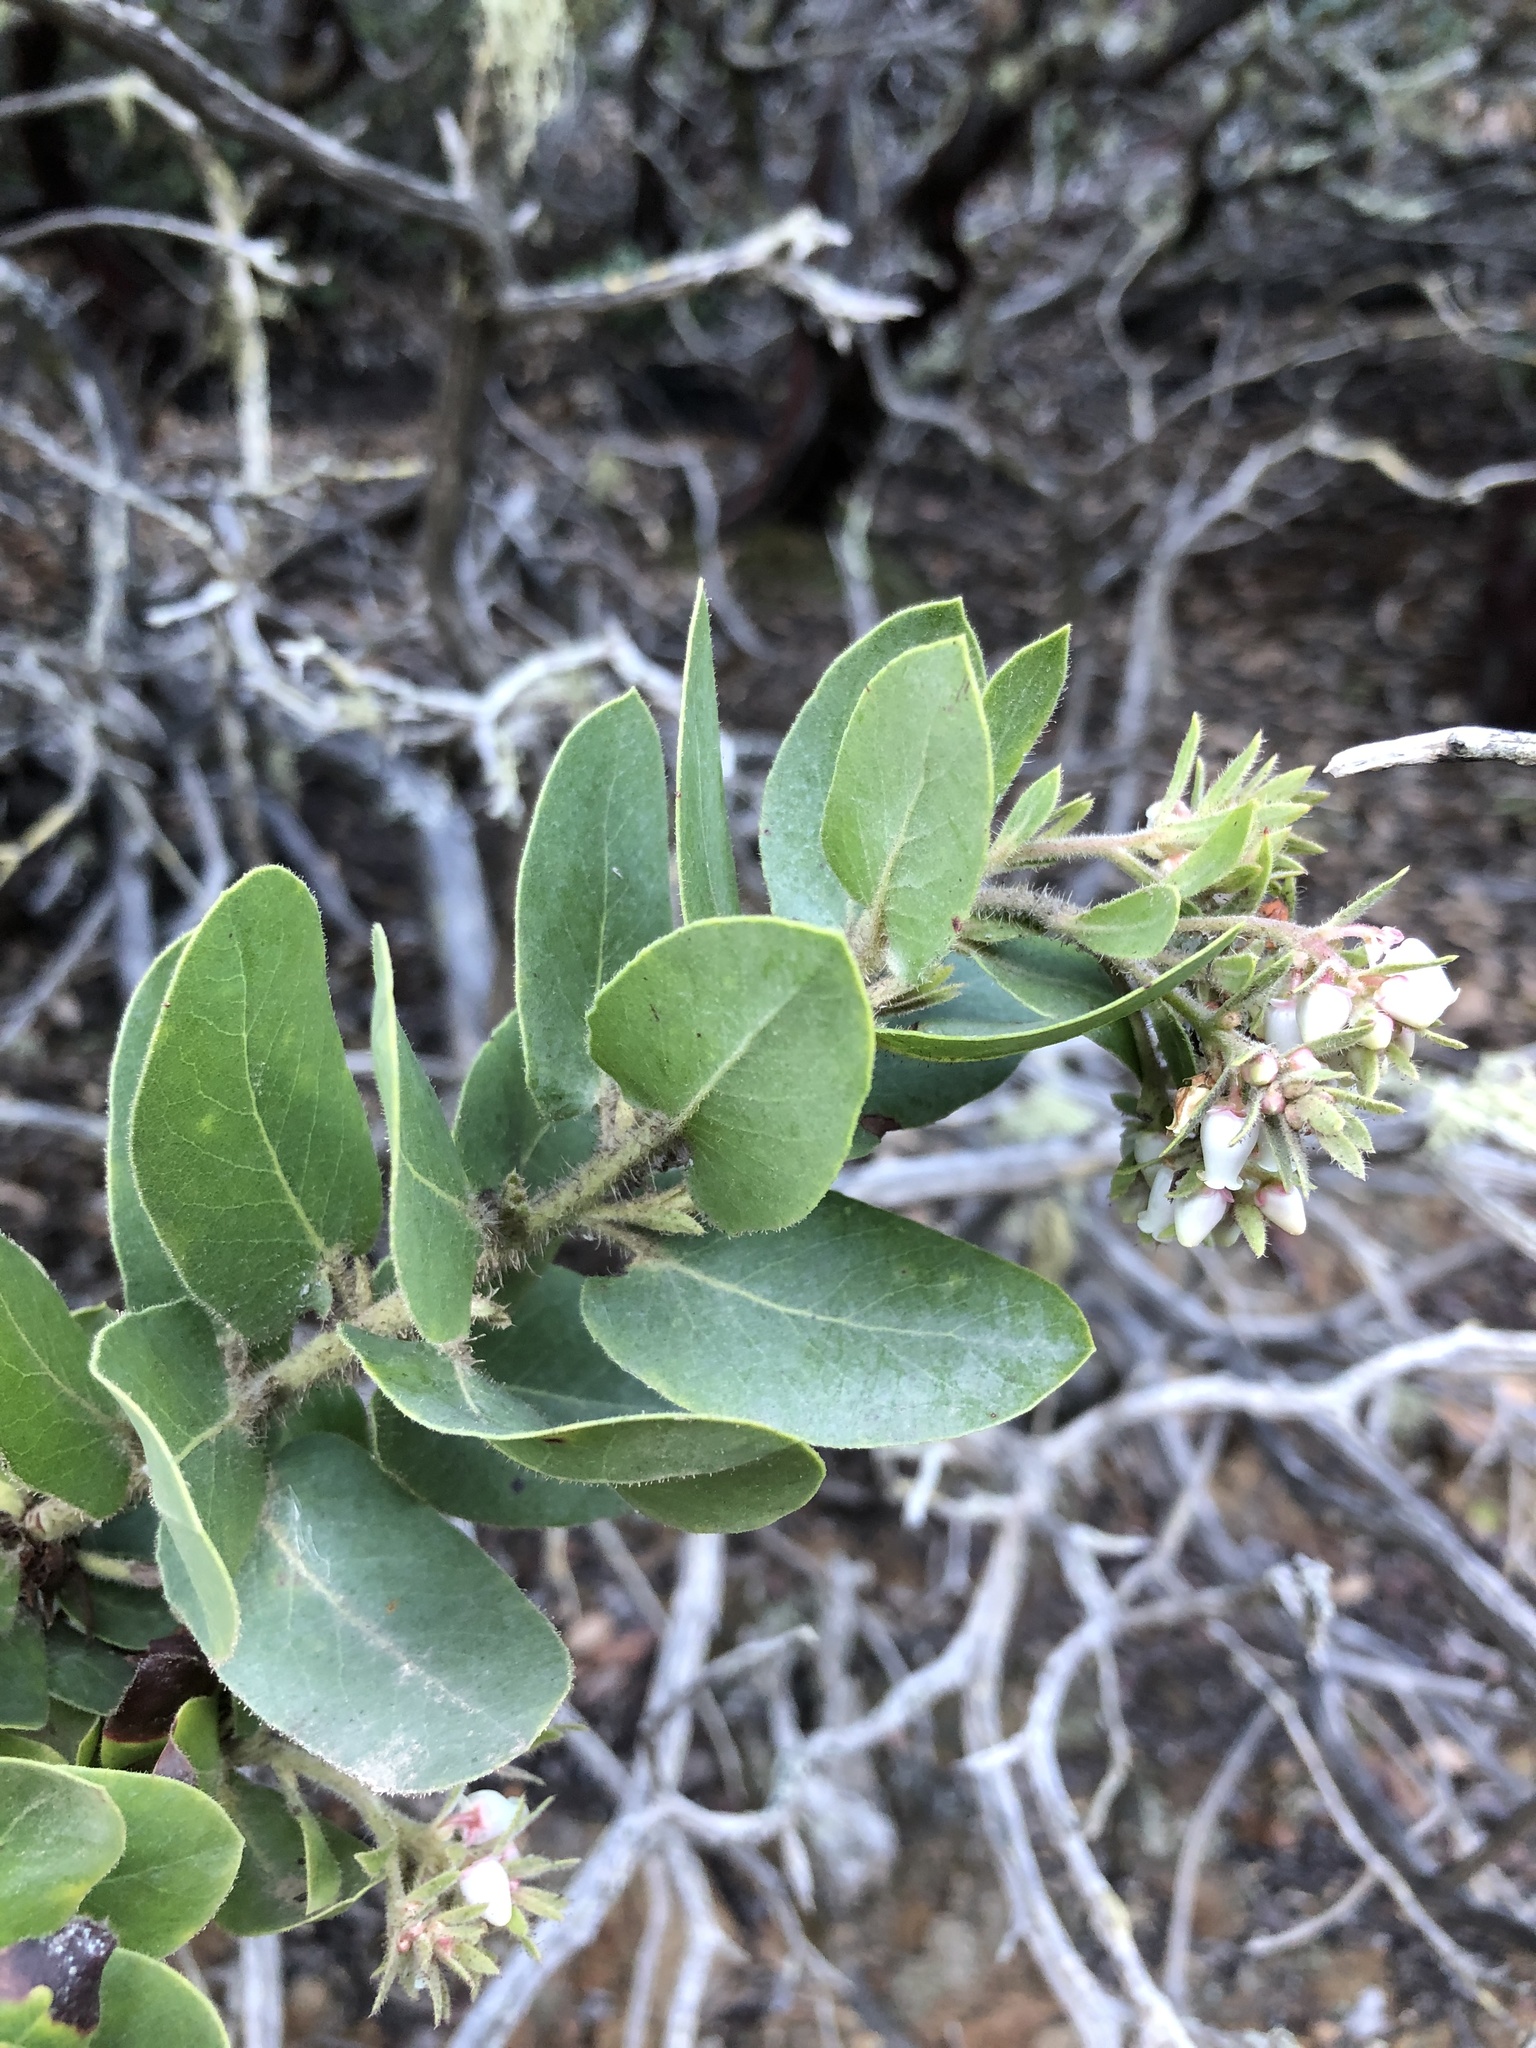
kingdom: Plantae
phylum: Tracheophyta
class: Magnoliopsida
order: Ericales
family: Ericaceae
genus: Arctostaphylos
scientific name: Arctostaphylos montaraensis
